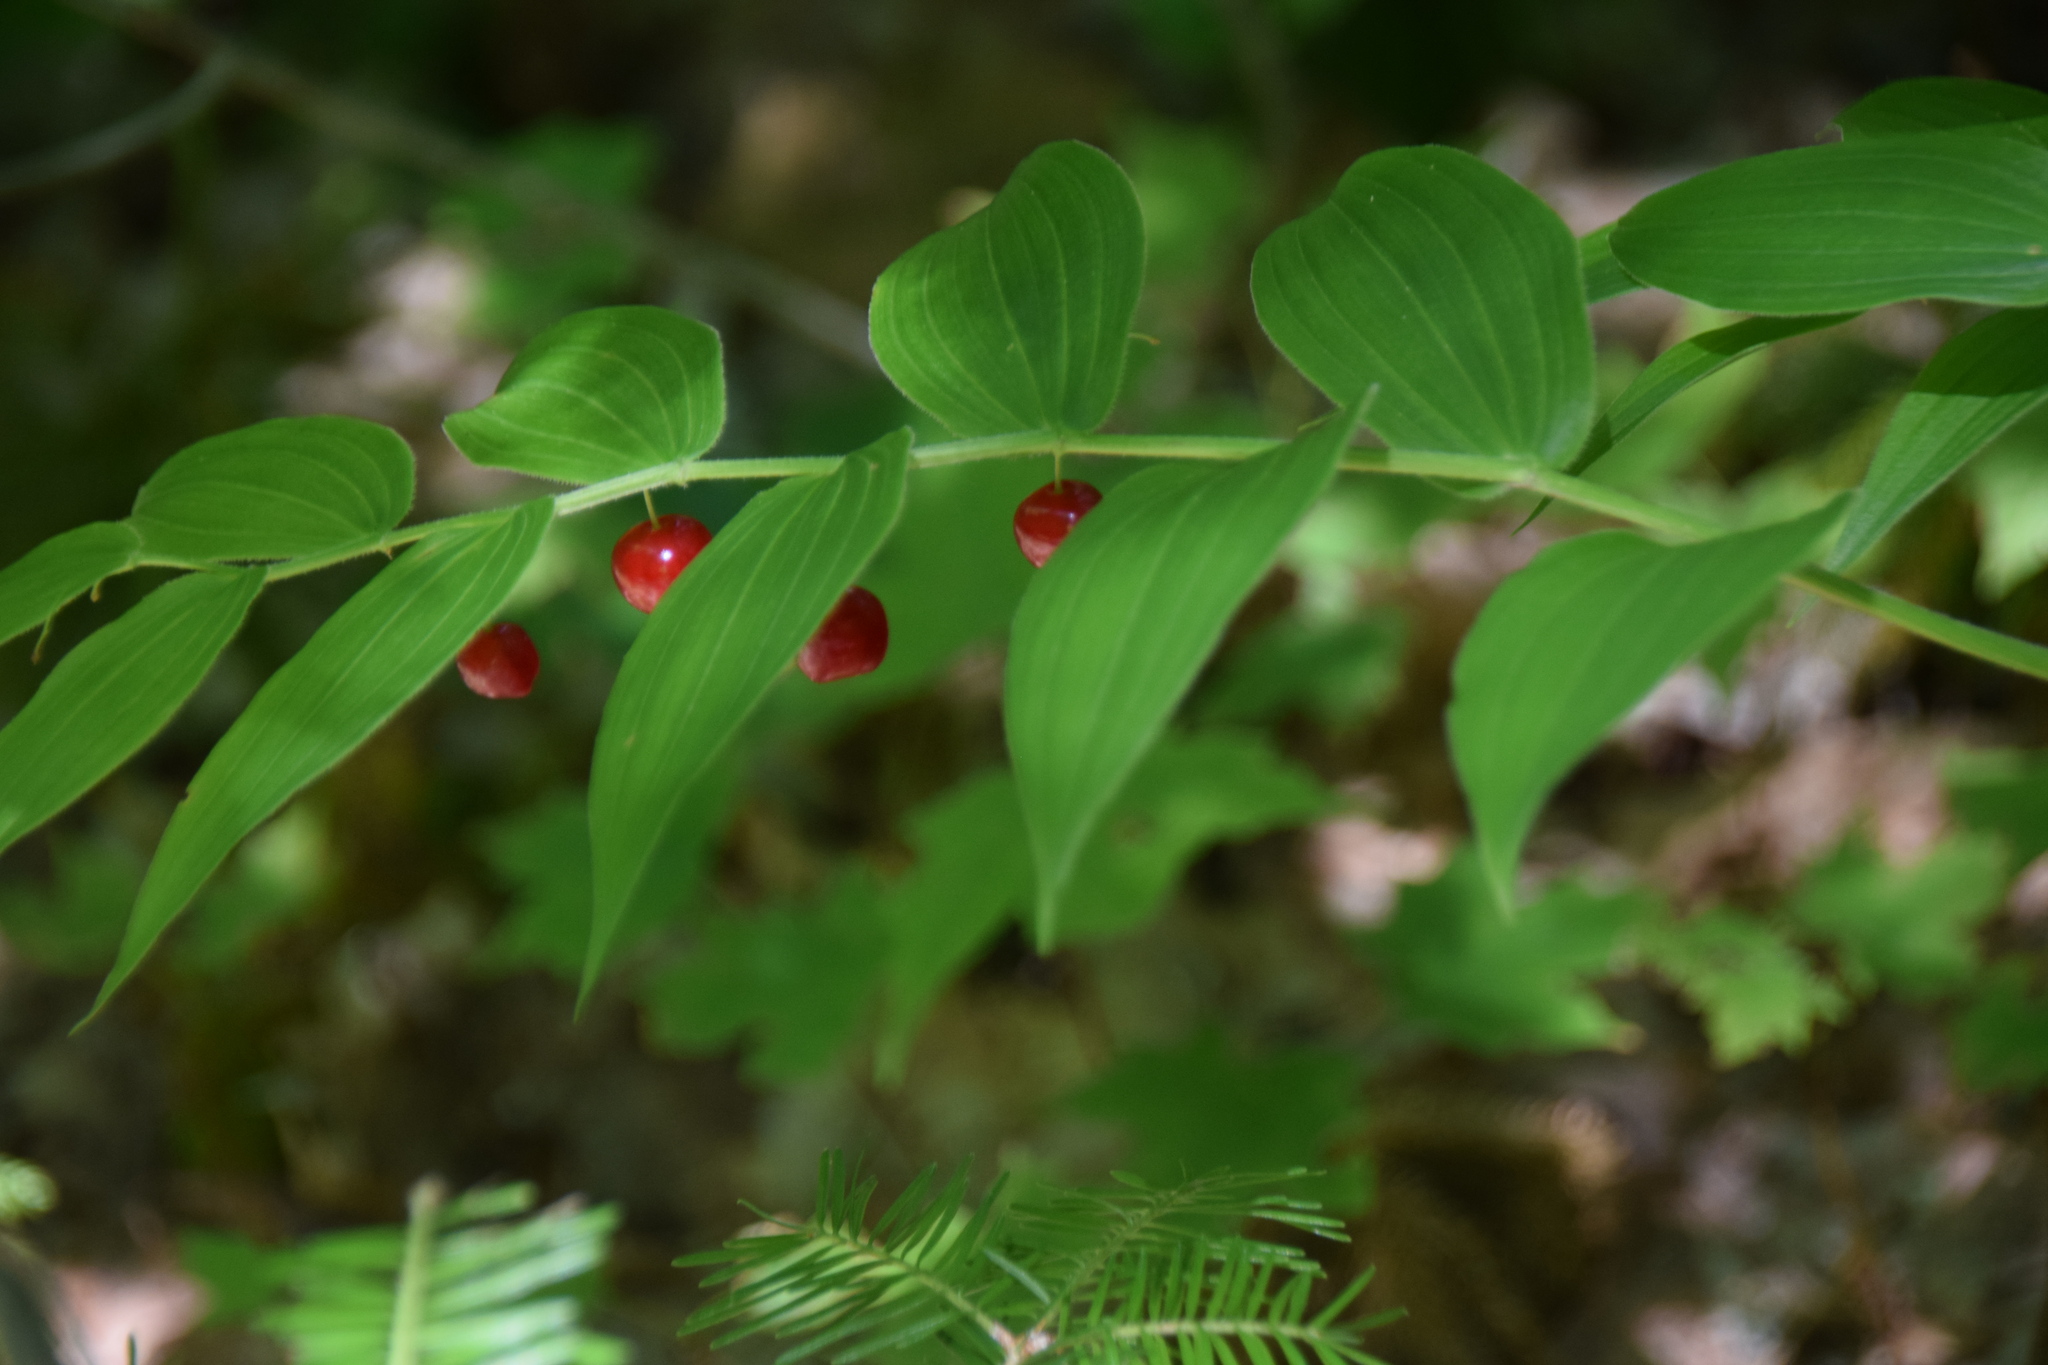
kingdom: Plantae
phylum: Tracheophyta
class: Liliopsida
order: Liliales
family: Liliaceae
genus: Streptopus
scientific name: Streptopus lanceolatus
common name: Rose mandarin
